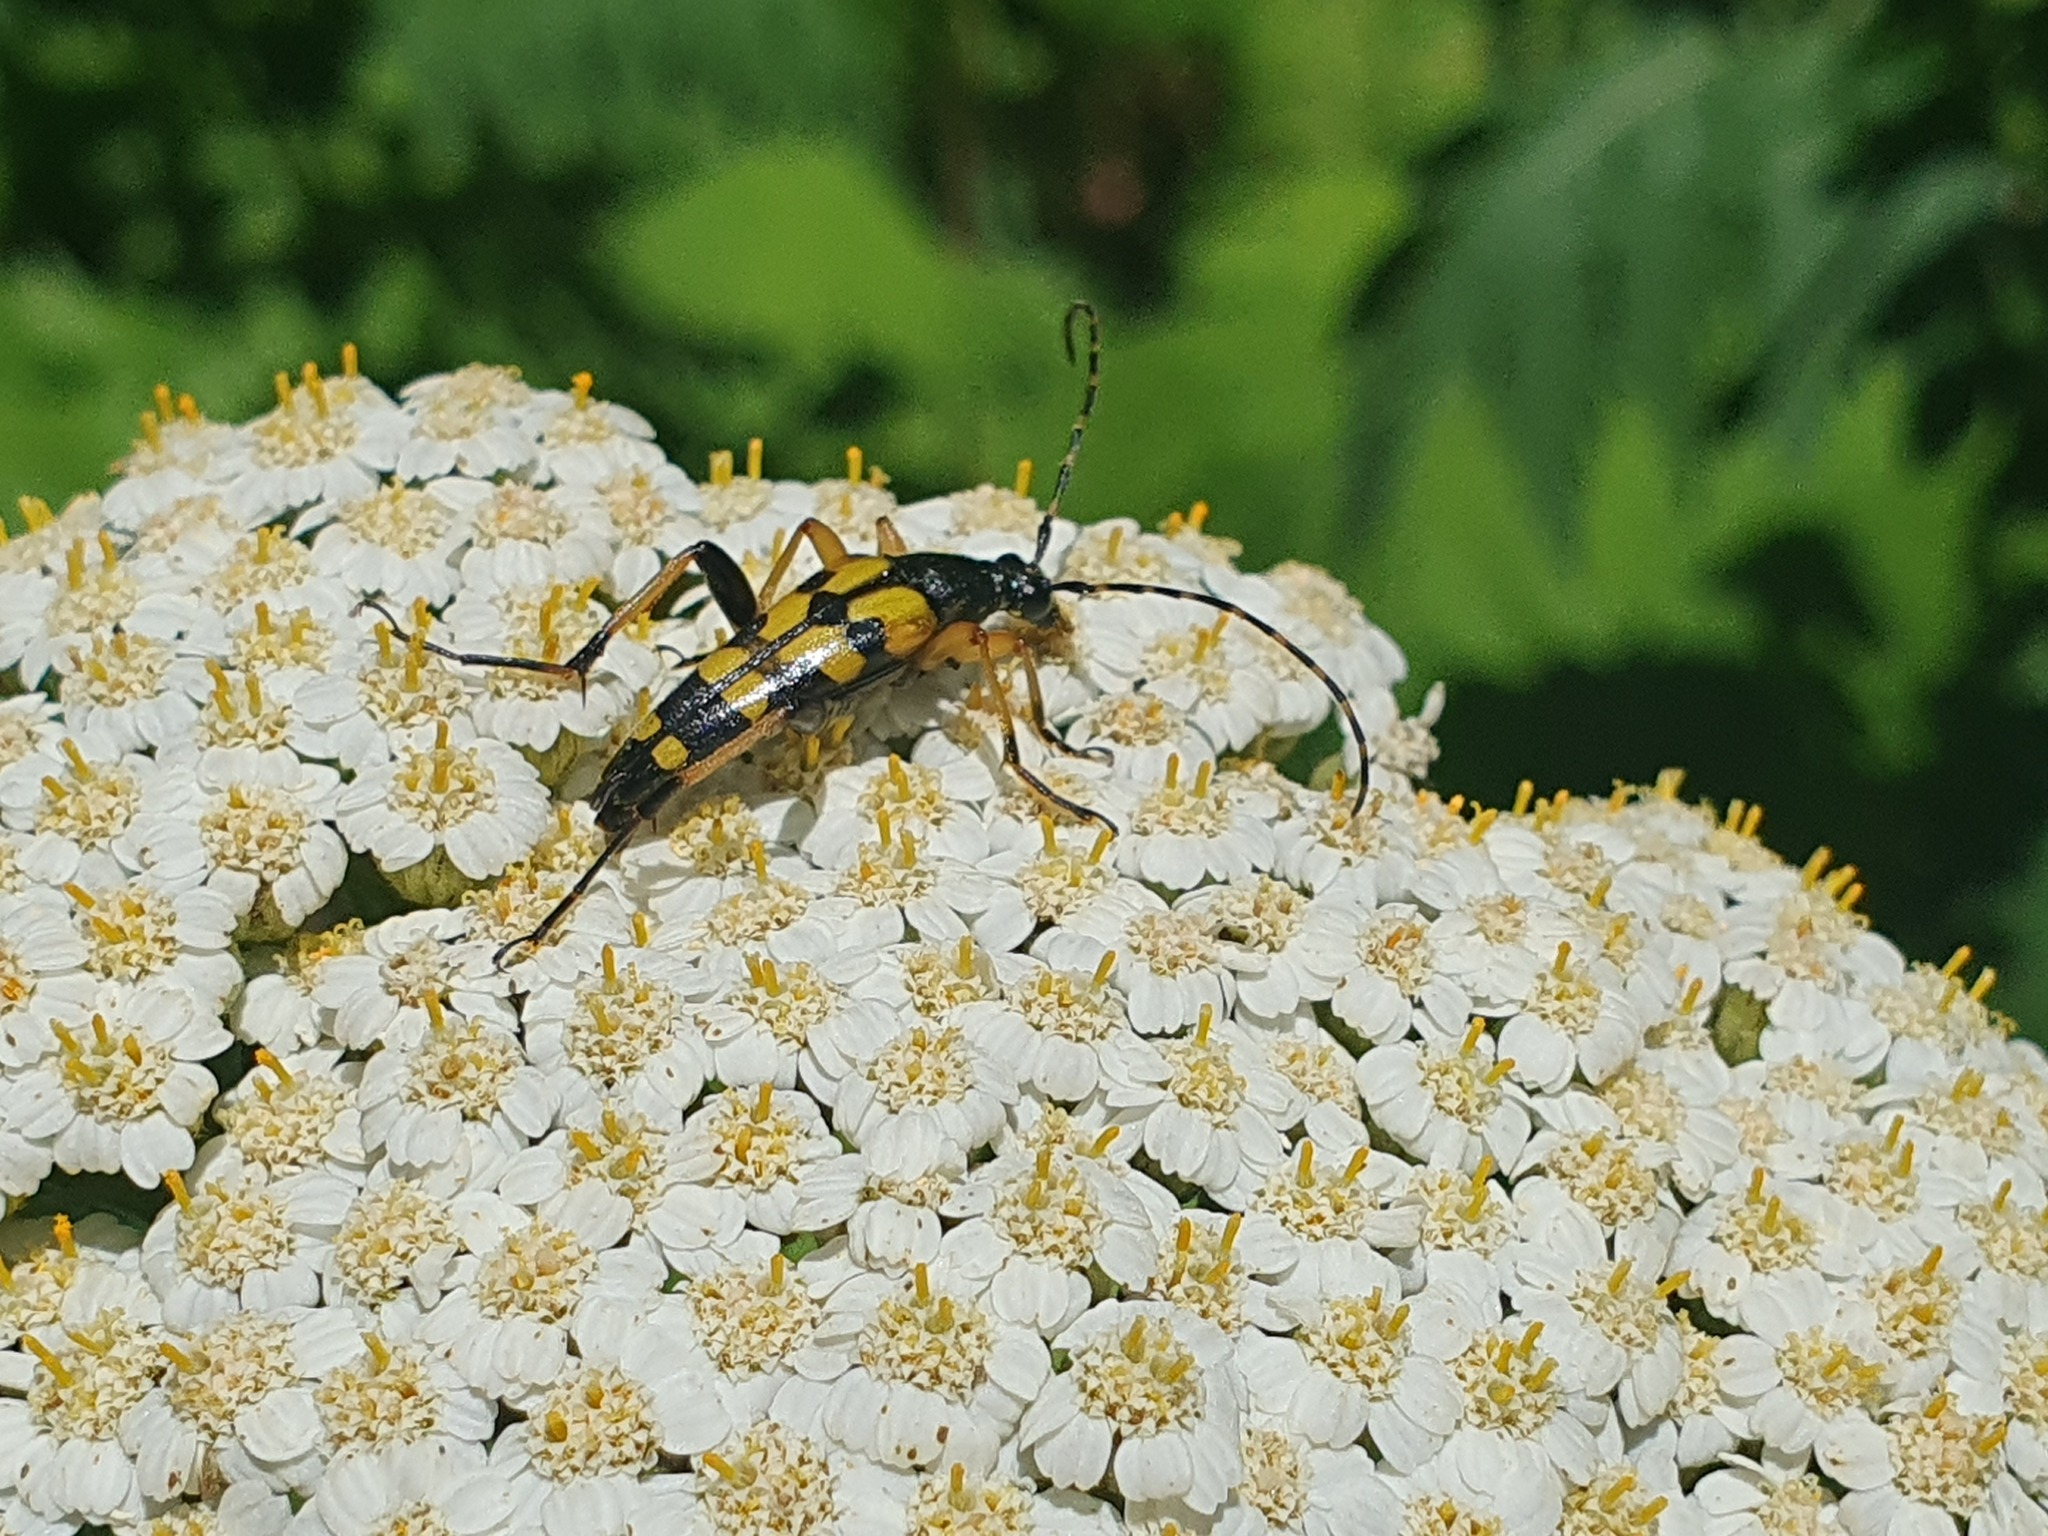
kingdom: Animalia
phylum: Arthropoda
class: Insecta
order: Coleoptera
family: Cerambycidae
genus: Rutpela
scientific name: Rutpela maculata
